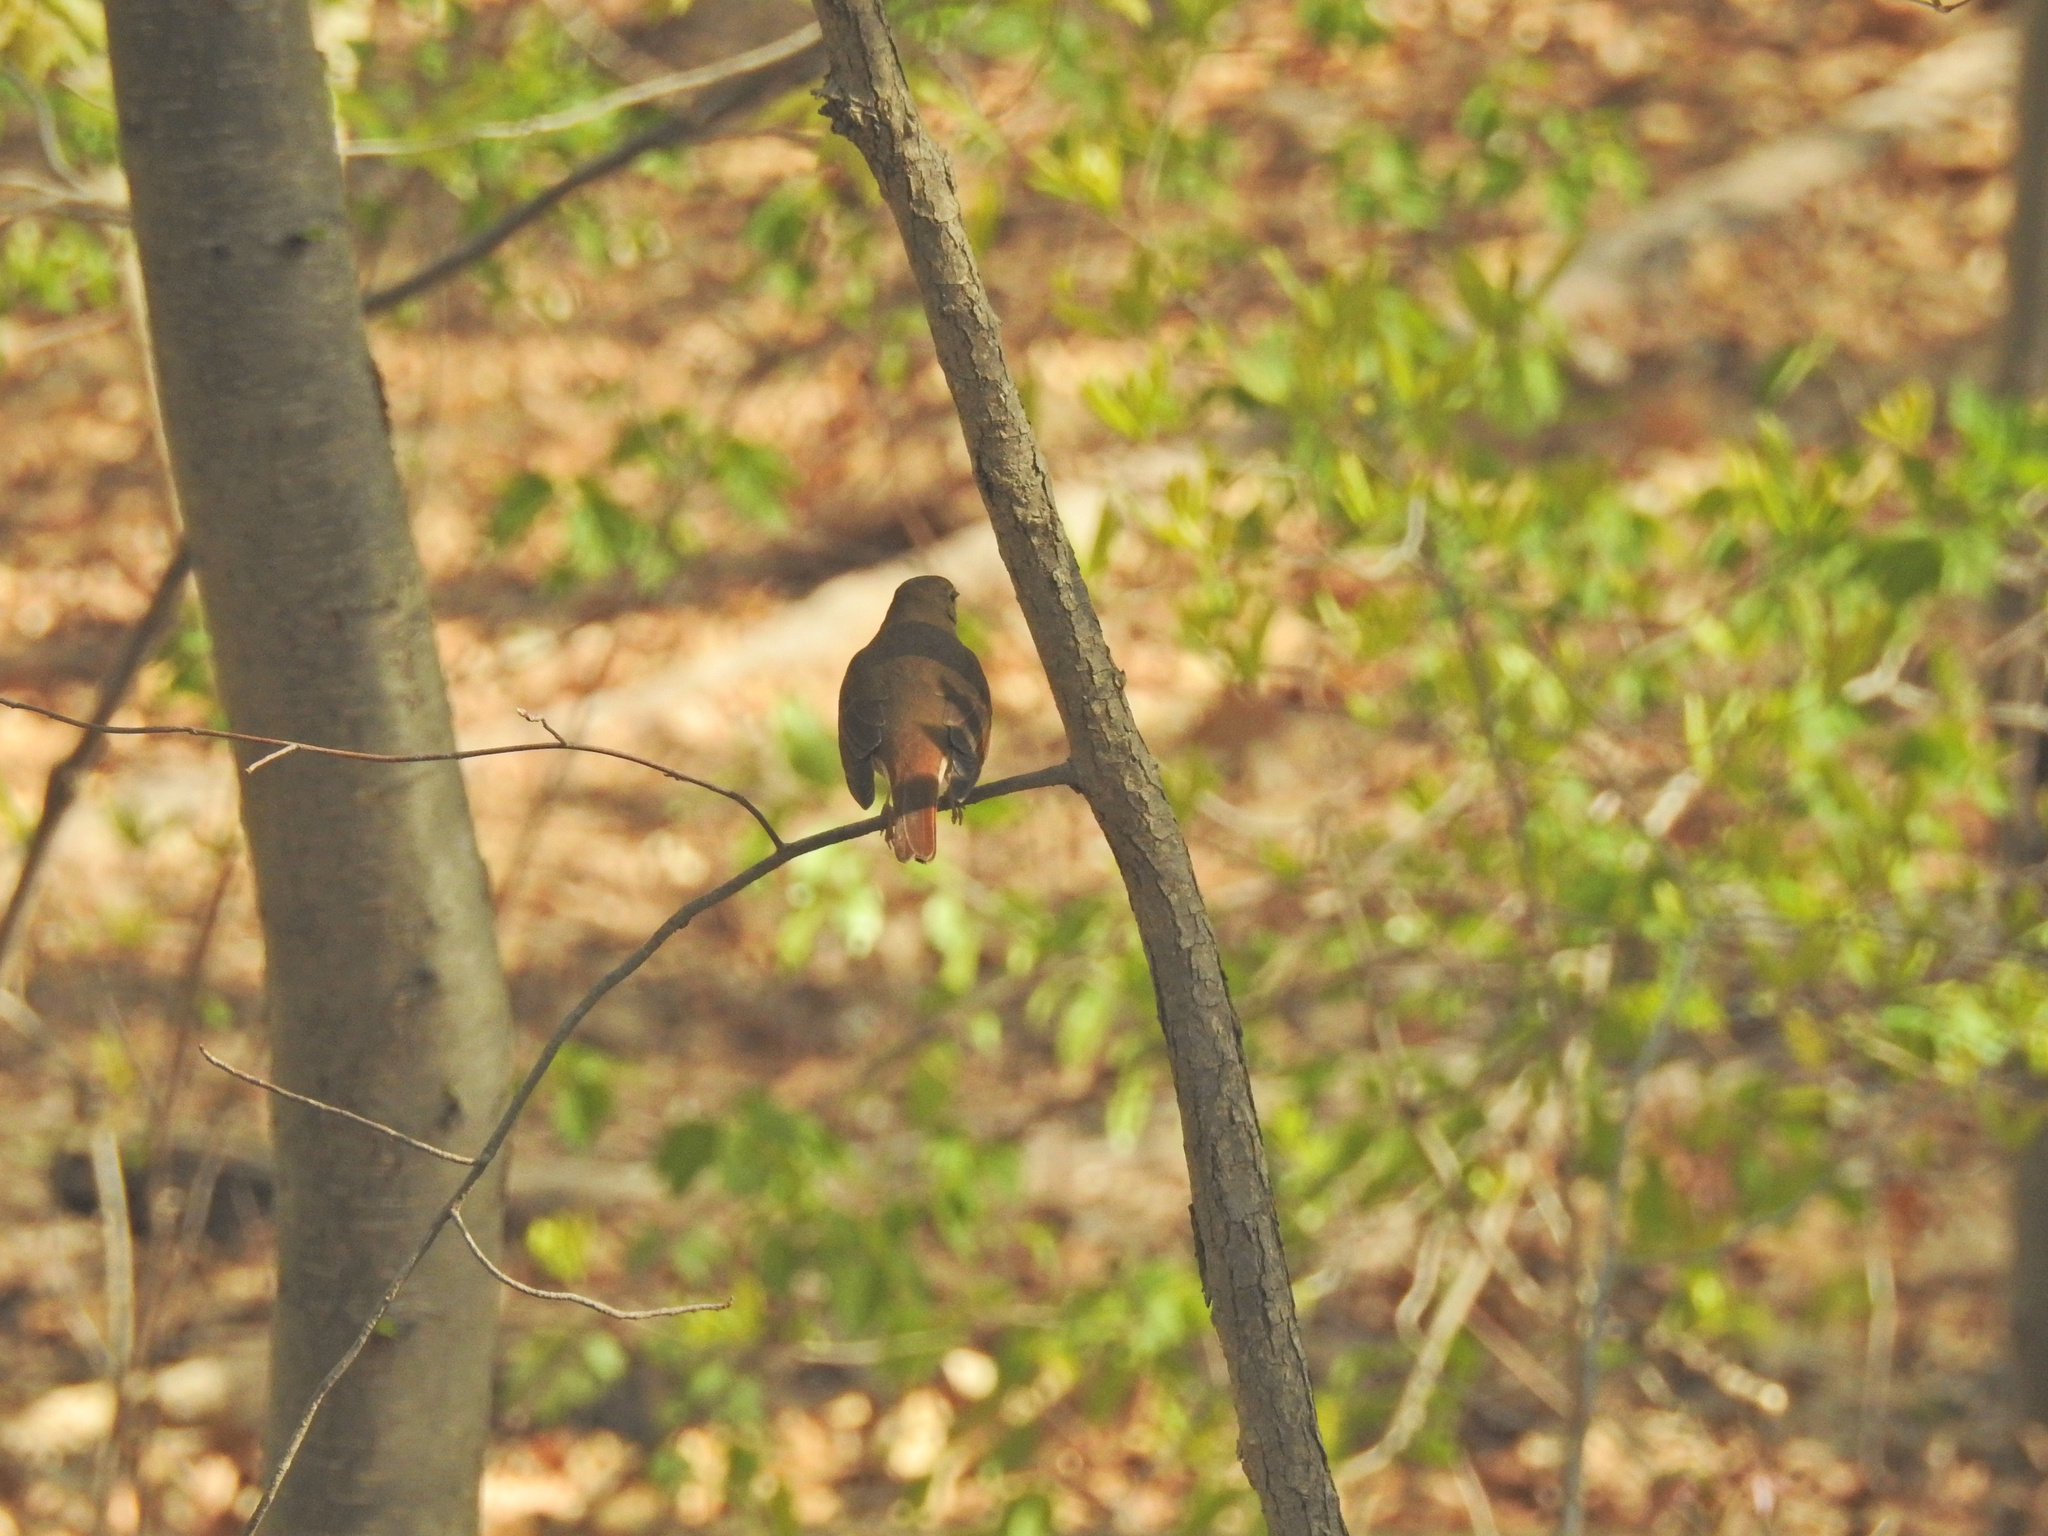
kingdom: Animalia
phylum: Chordata
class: Aves
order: Passeriformes
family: Turdidae
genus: Catharus
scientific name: Catharus guttatus
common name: Hermit thrush
